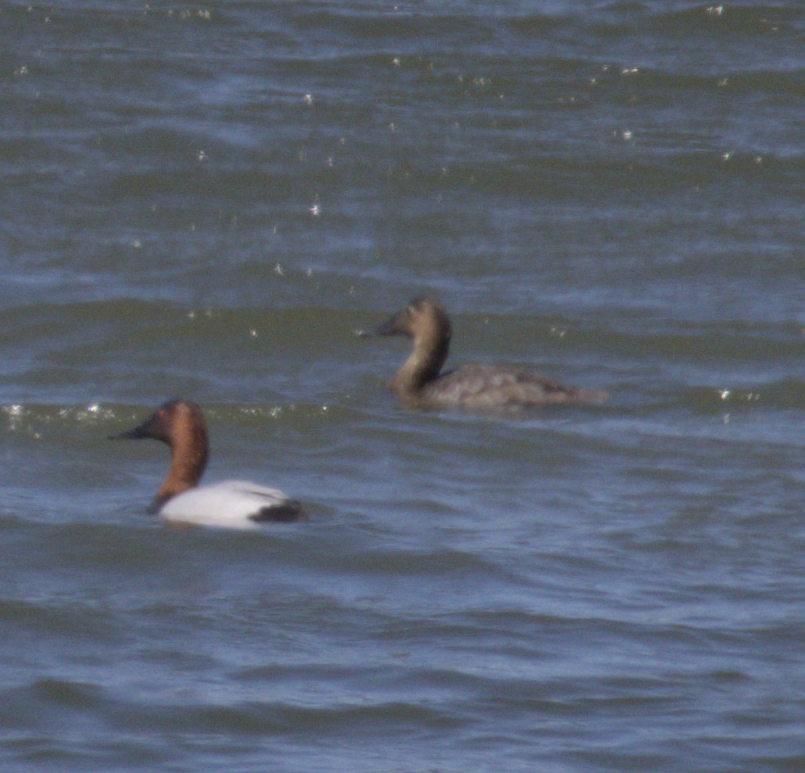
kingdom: Animalia
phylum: Chordata
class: Aves
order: Anseriformes
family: Anatidae
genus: Aythya
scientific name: Aythya valisineria
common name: Canvasback
